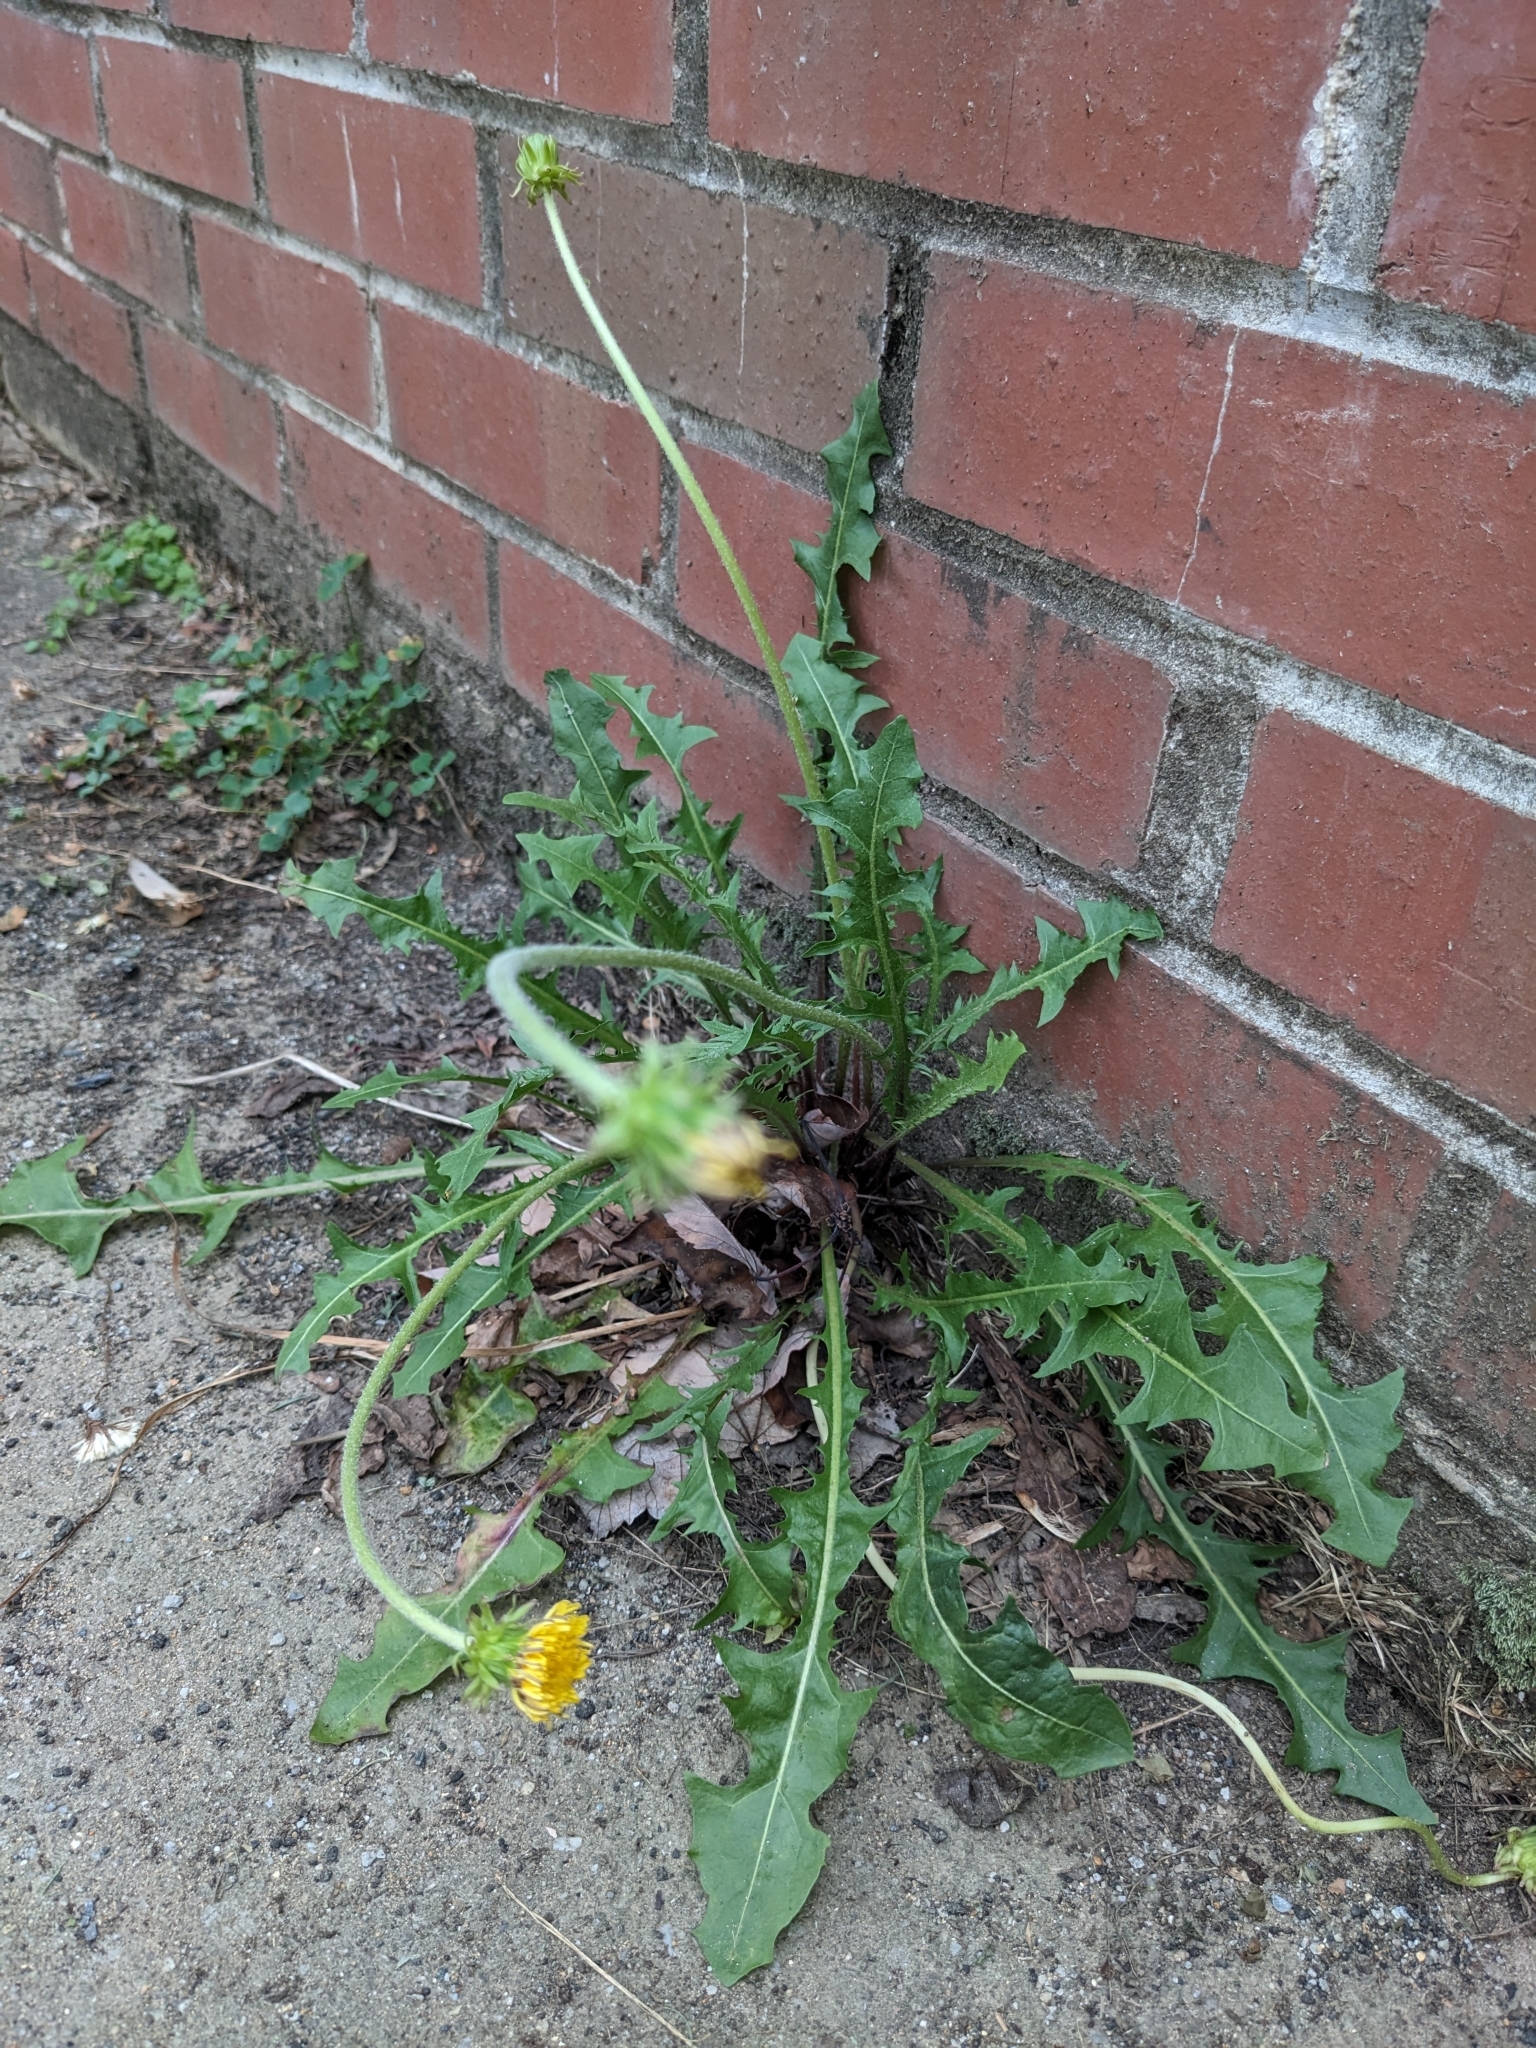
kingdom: Plantae
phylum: Tracheophyta
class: Magnoliopsida
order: Asterales
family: Asteraceae
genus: Taraxacum
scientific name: Taraxacum officinale
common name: Common dandelion
